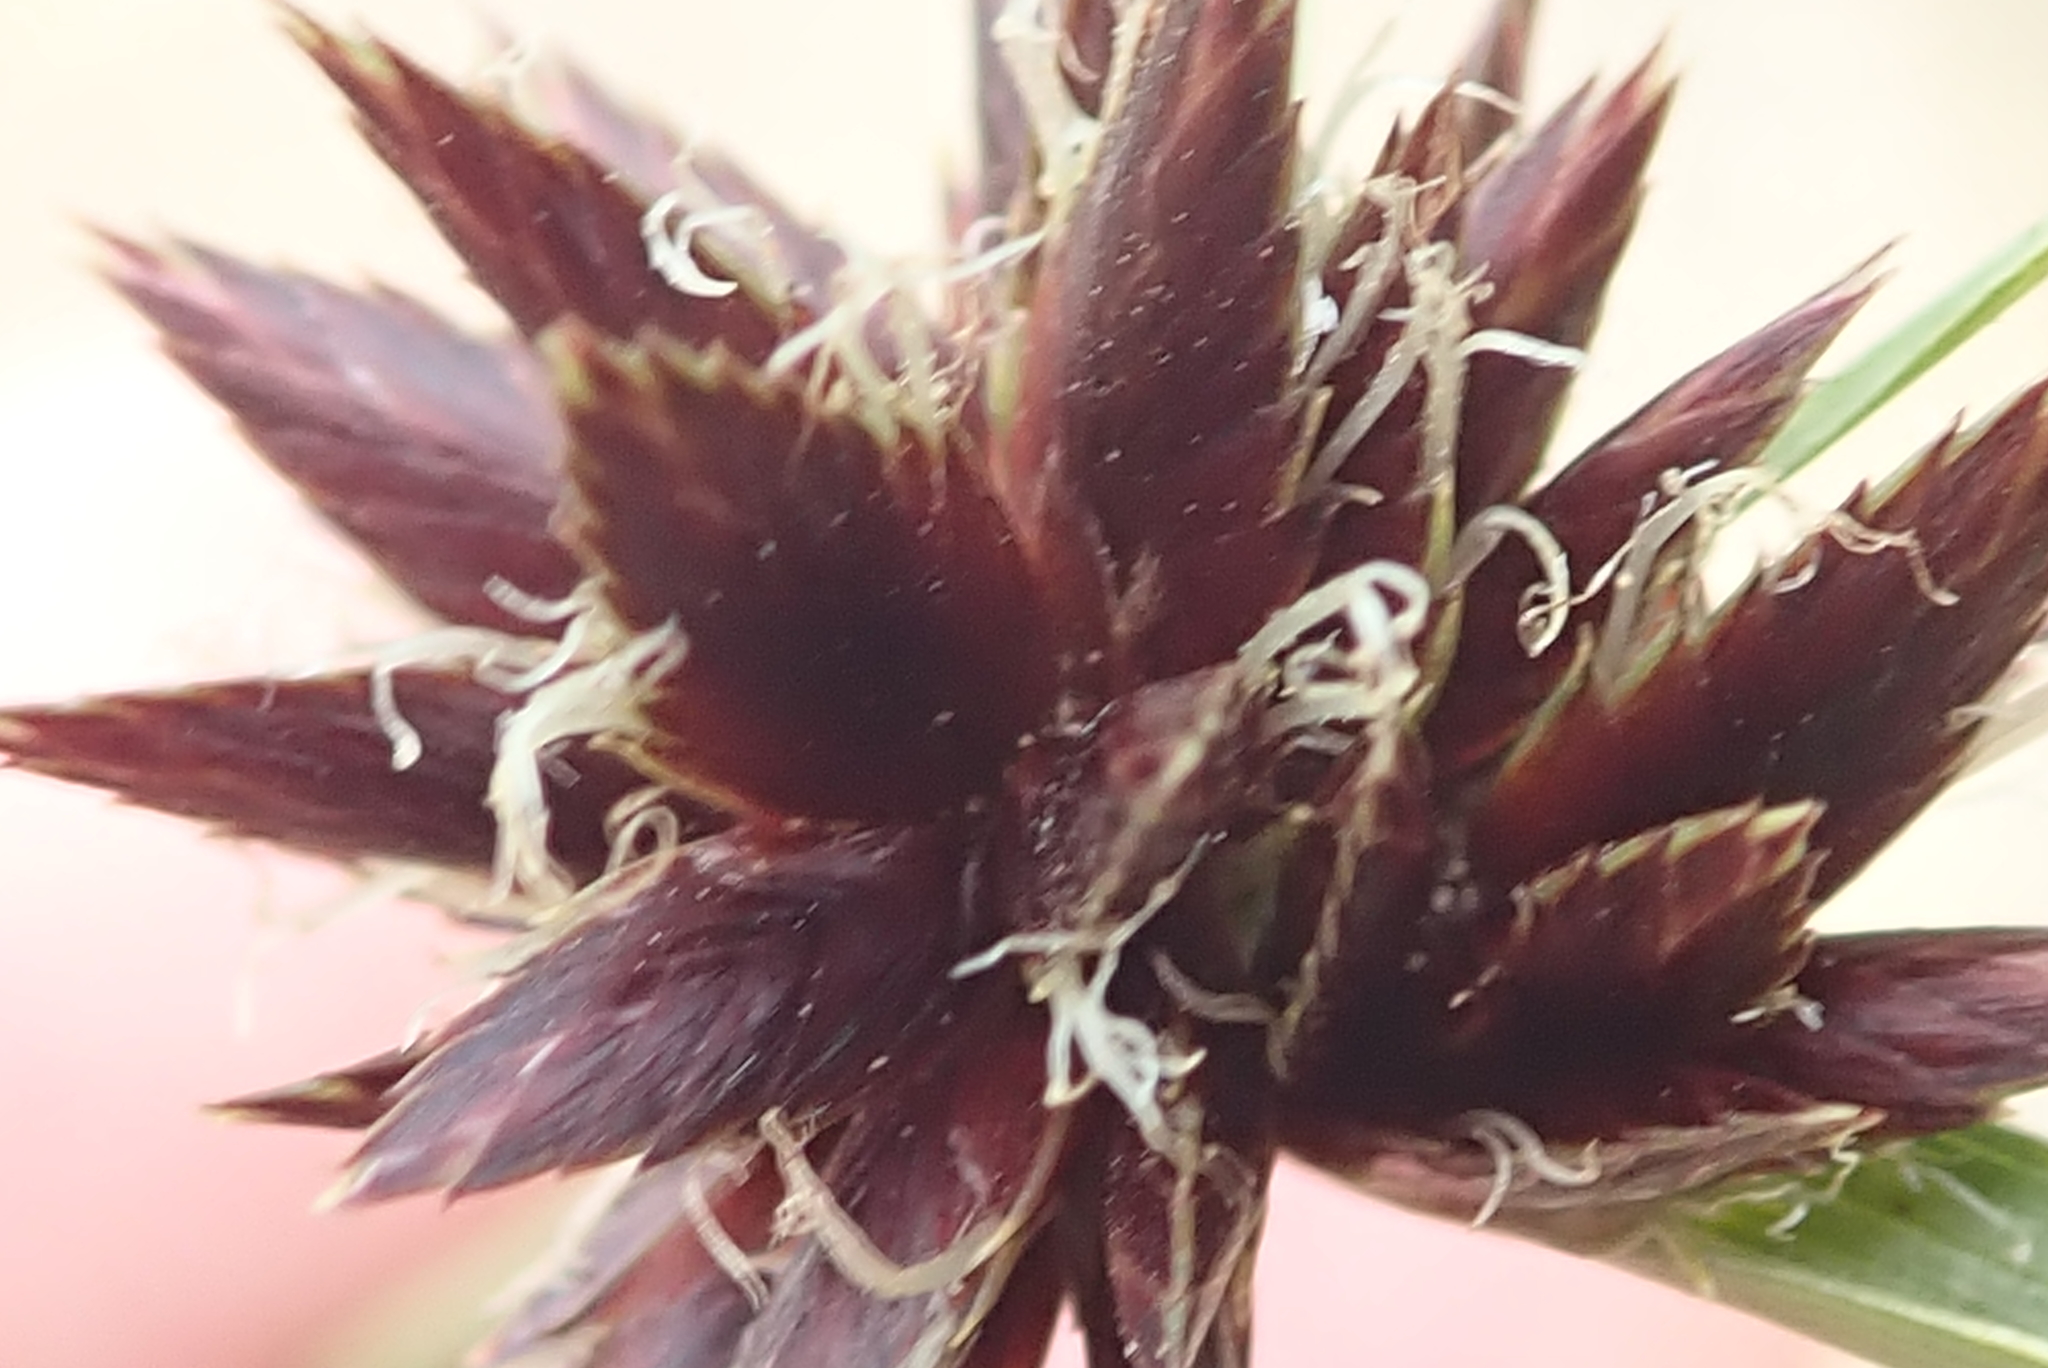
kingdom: Plantae
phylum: Tracheophyta
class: Liliopsida
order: Poales
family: Cyperaceae
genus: Cyperus
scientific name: Cyperus semitrifidus
